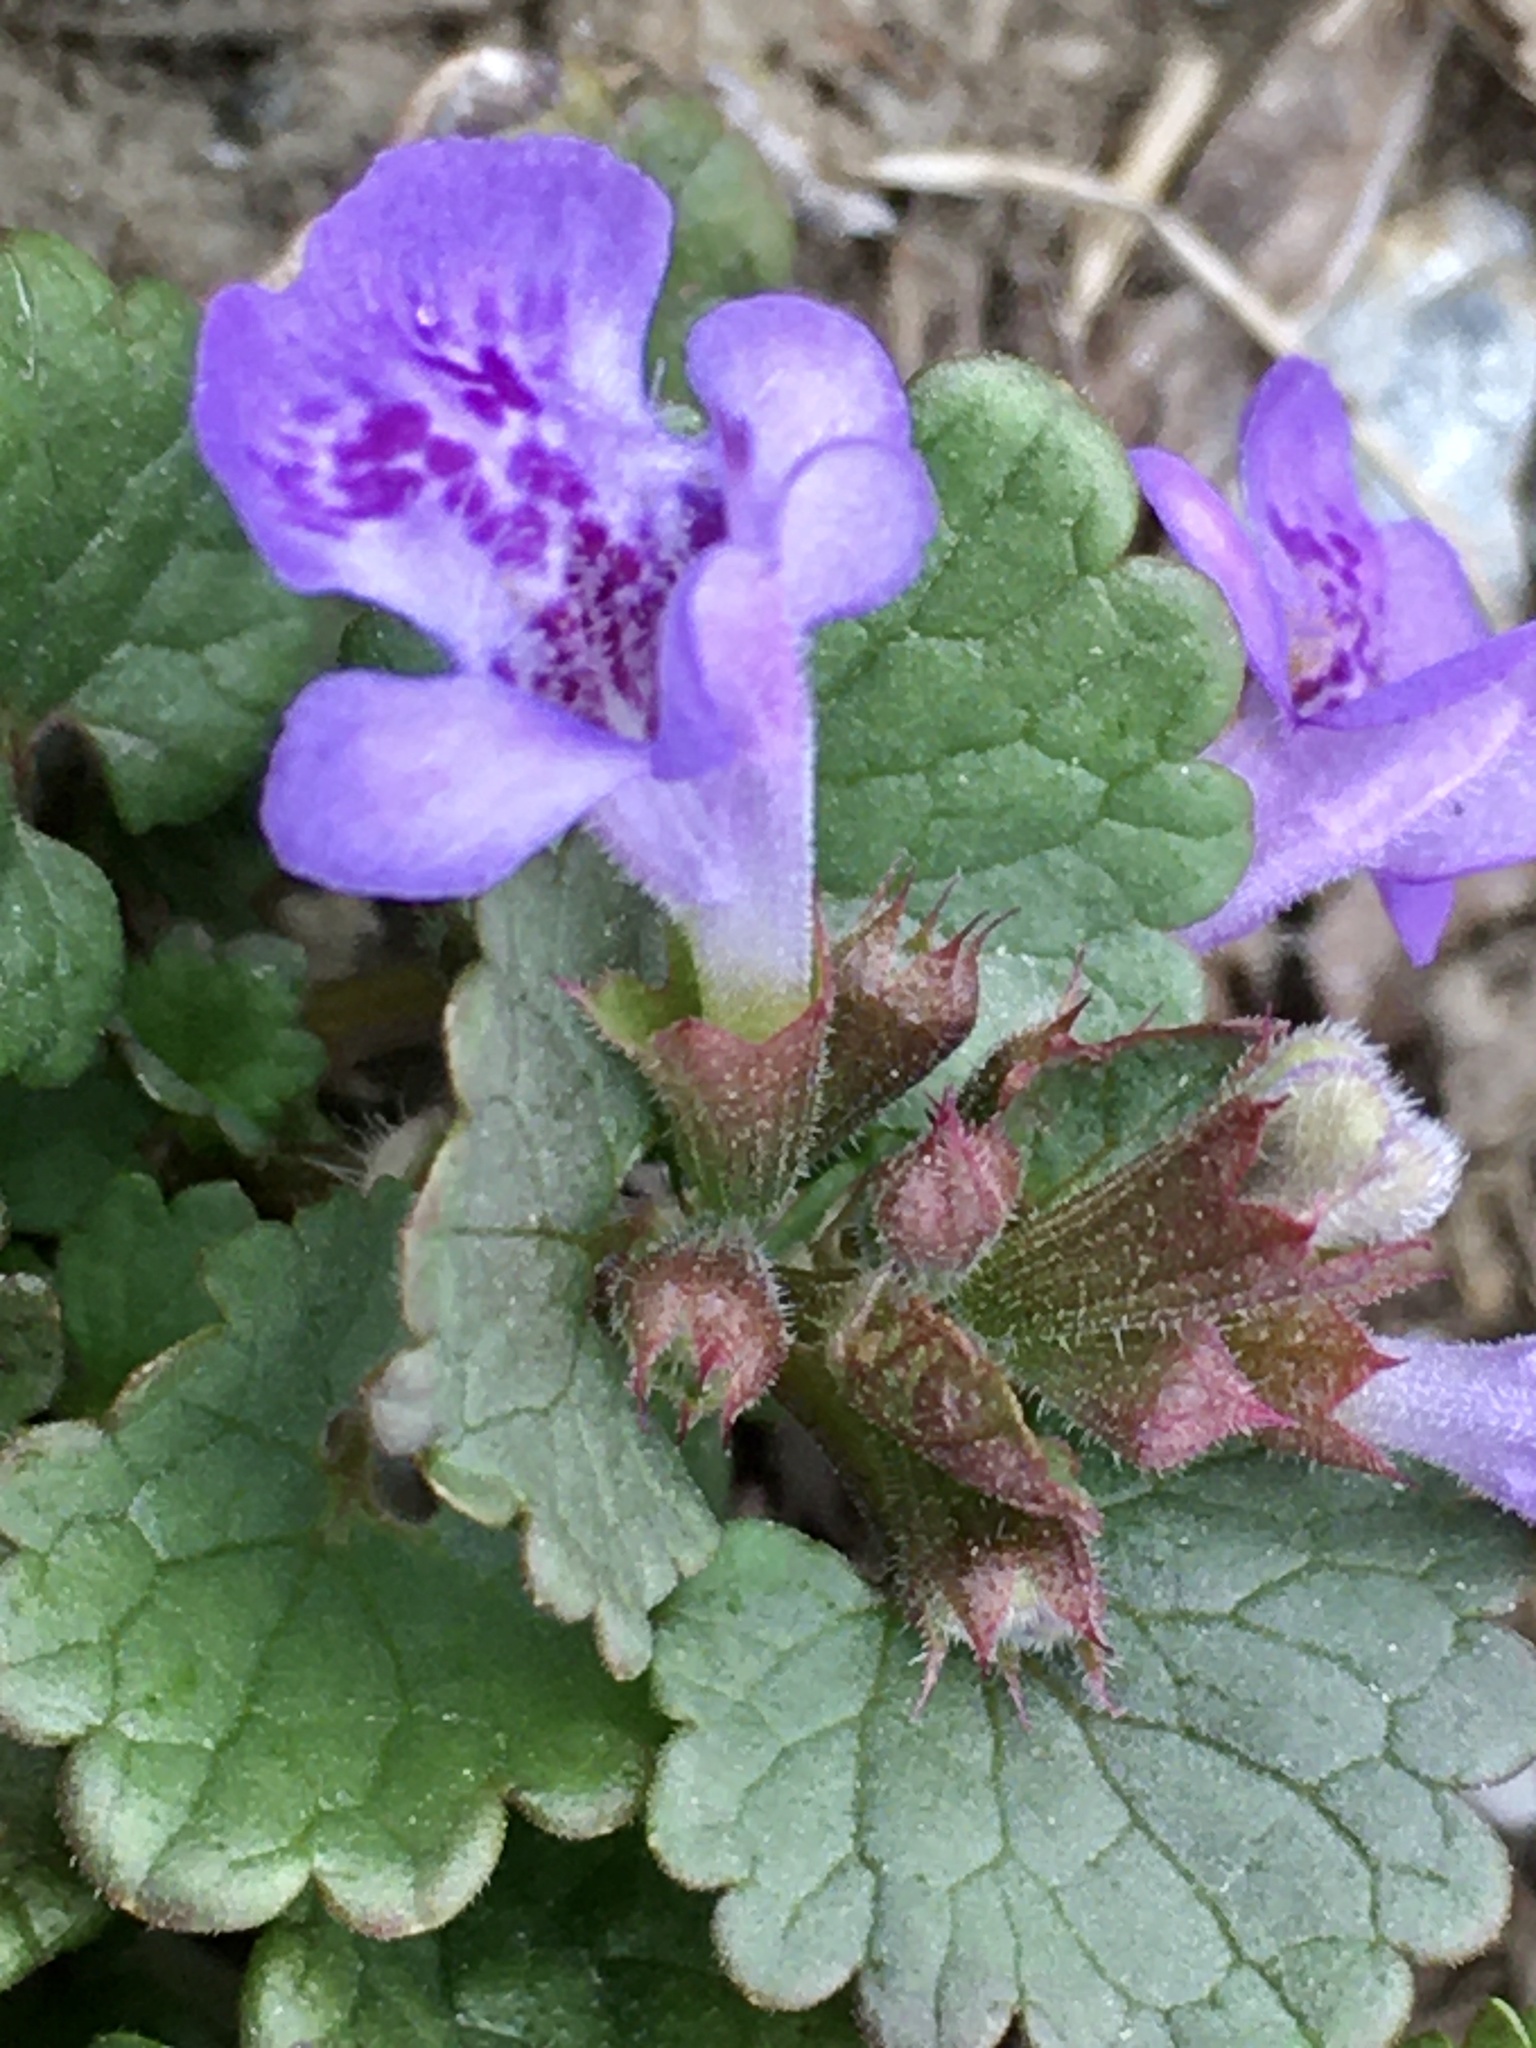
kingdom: Plantae
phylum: Tracheophyta
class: Magnoliopsida
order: Lamiales
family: Lamiaceae
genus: Glechoma
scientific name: Glechoma hederacea
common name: Ground ivy
